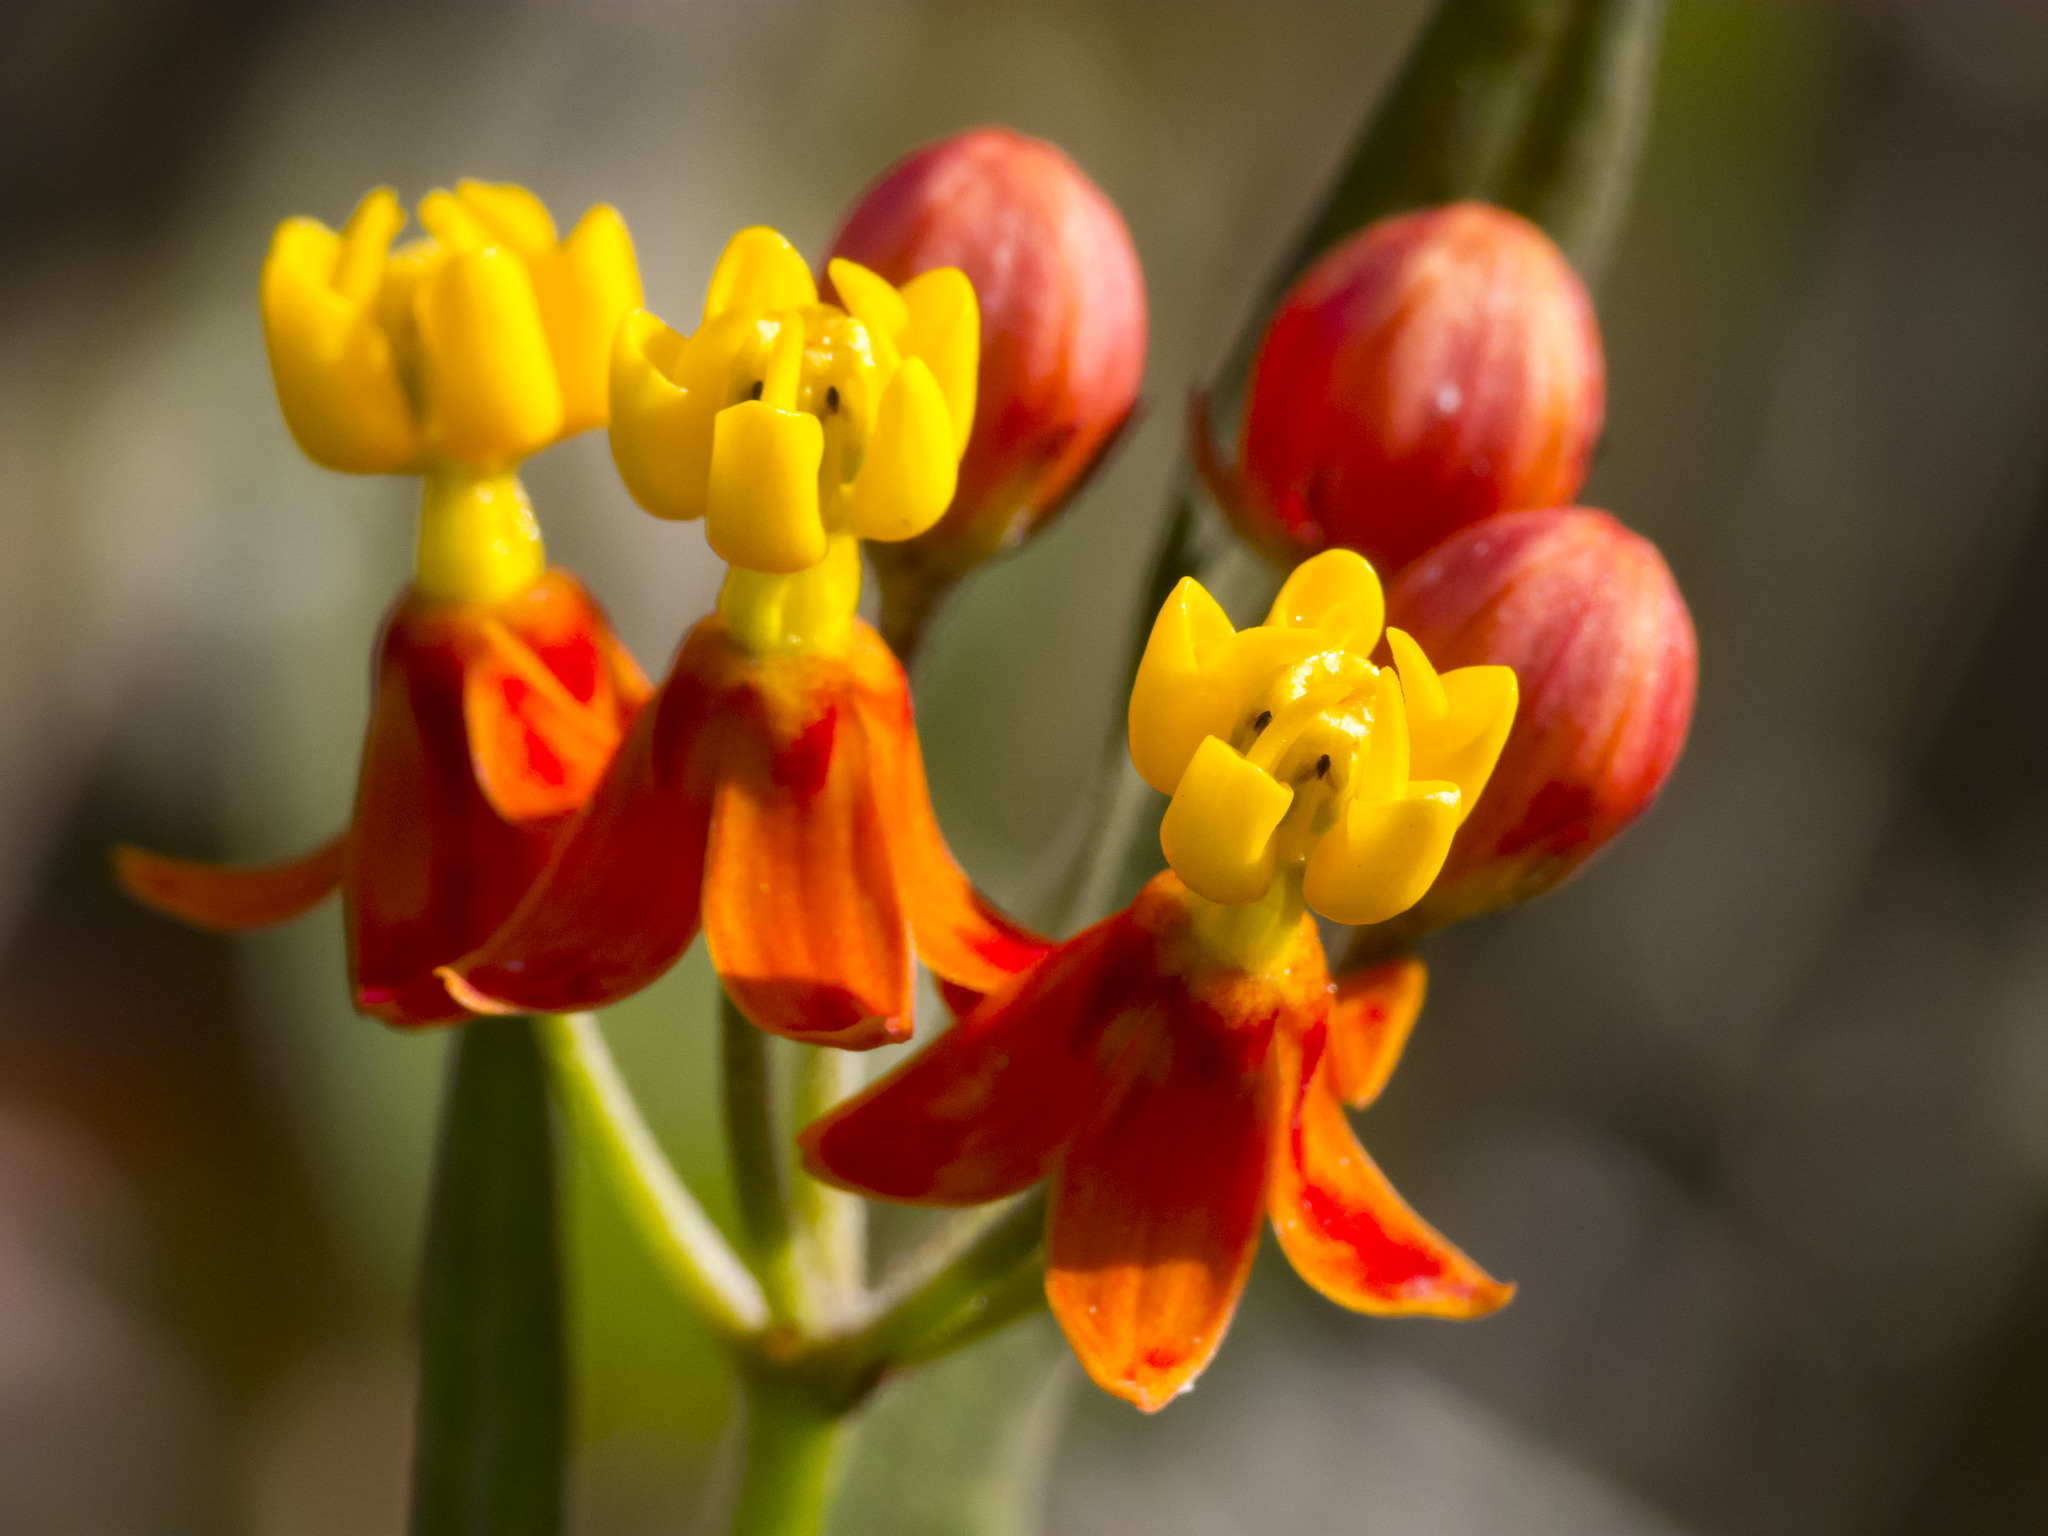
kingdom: Plantae
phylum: Tracheophyta
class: Magnoliopsida
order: Gentianales
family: Apocynaceae
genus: Asclepias
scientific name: Asclepias curassavica
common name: Bloodflower
